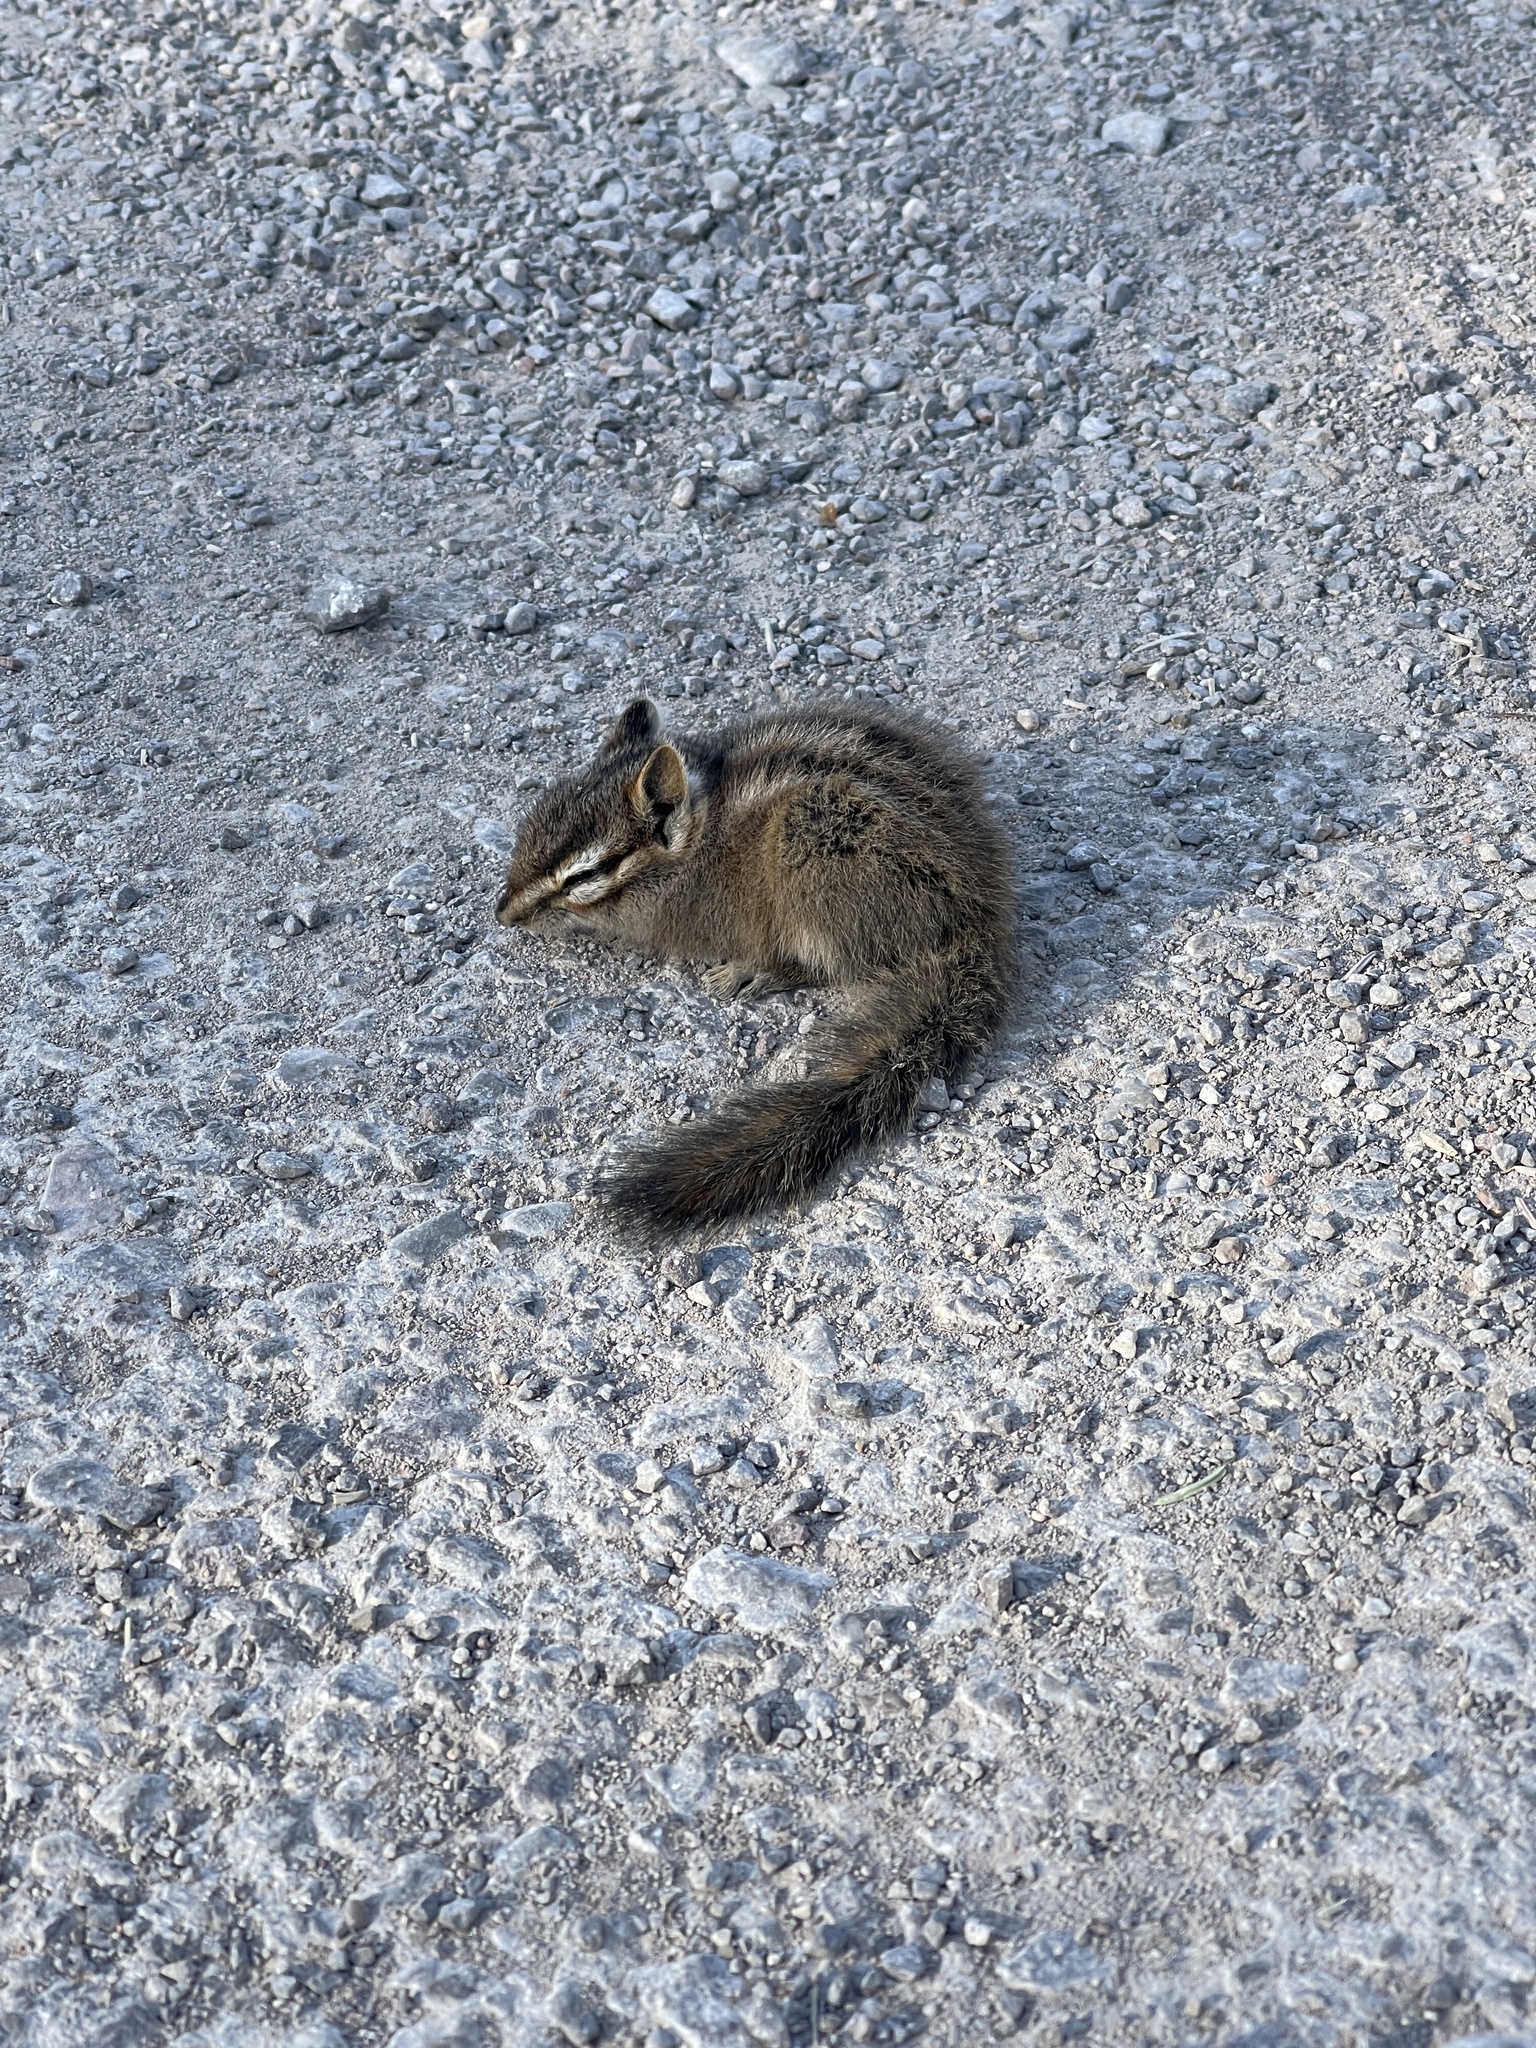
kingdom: Animalia
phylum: Chordata
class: Mammalia
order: Rodentia
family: Sciuridae
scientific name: Sciuridae
